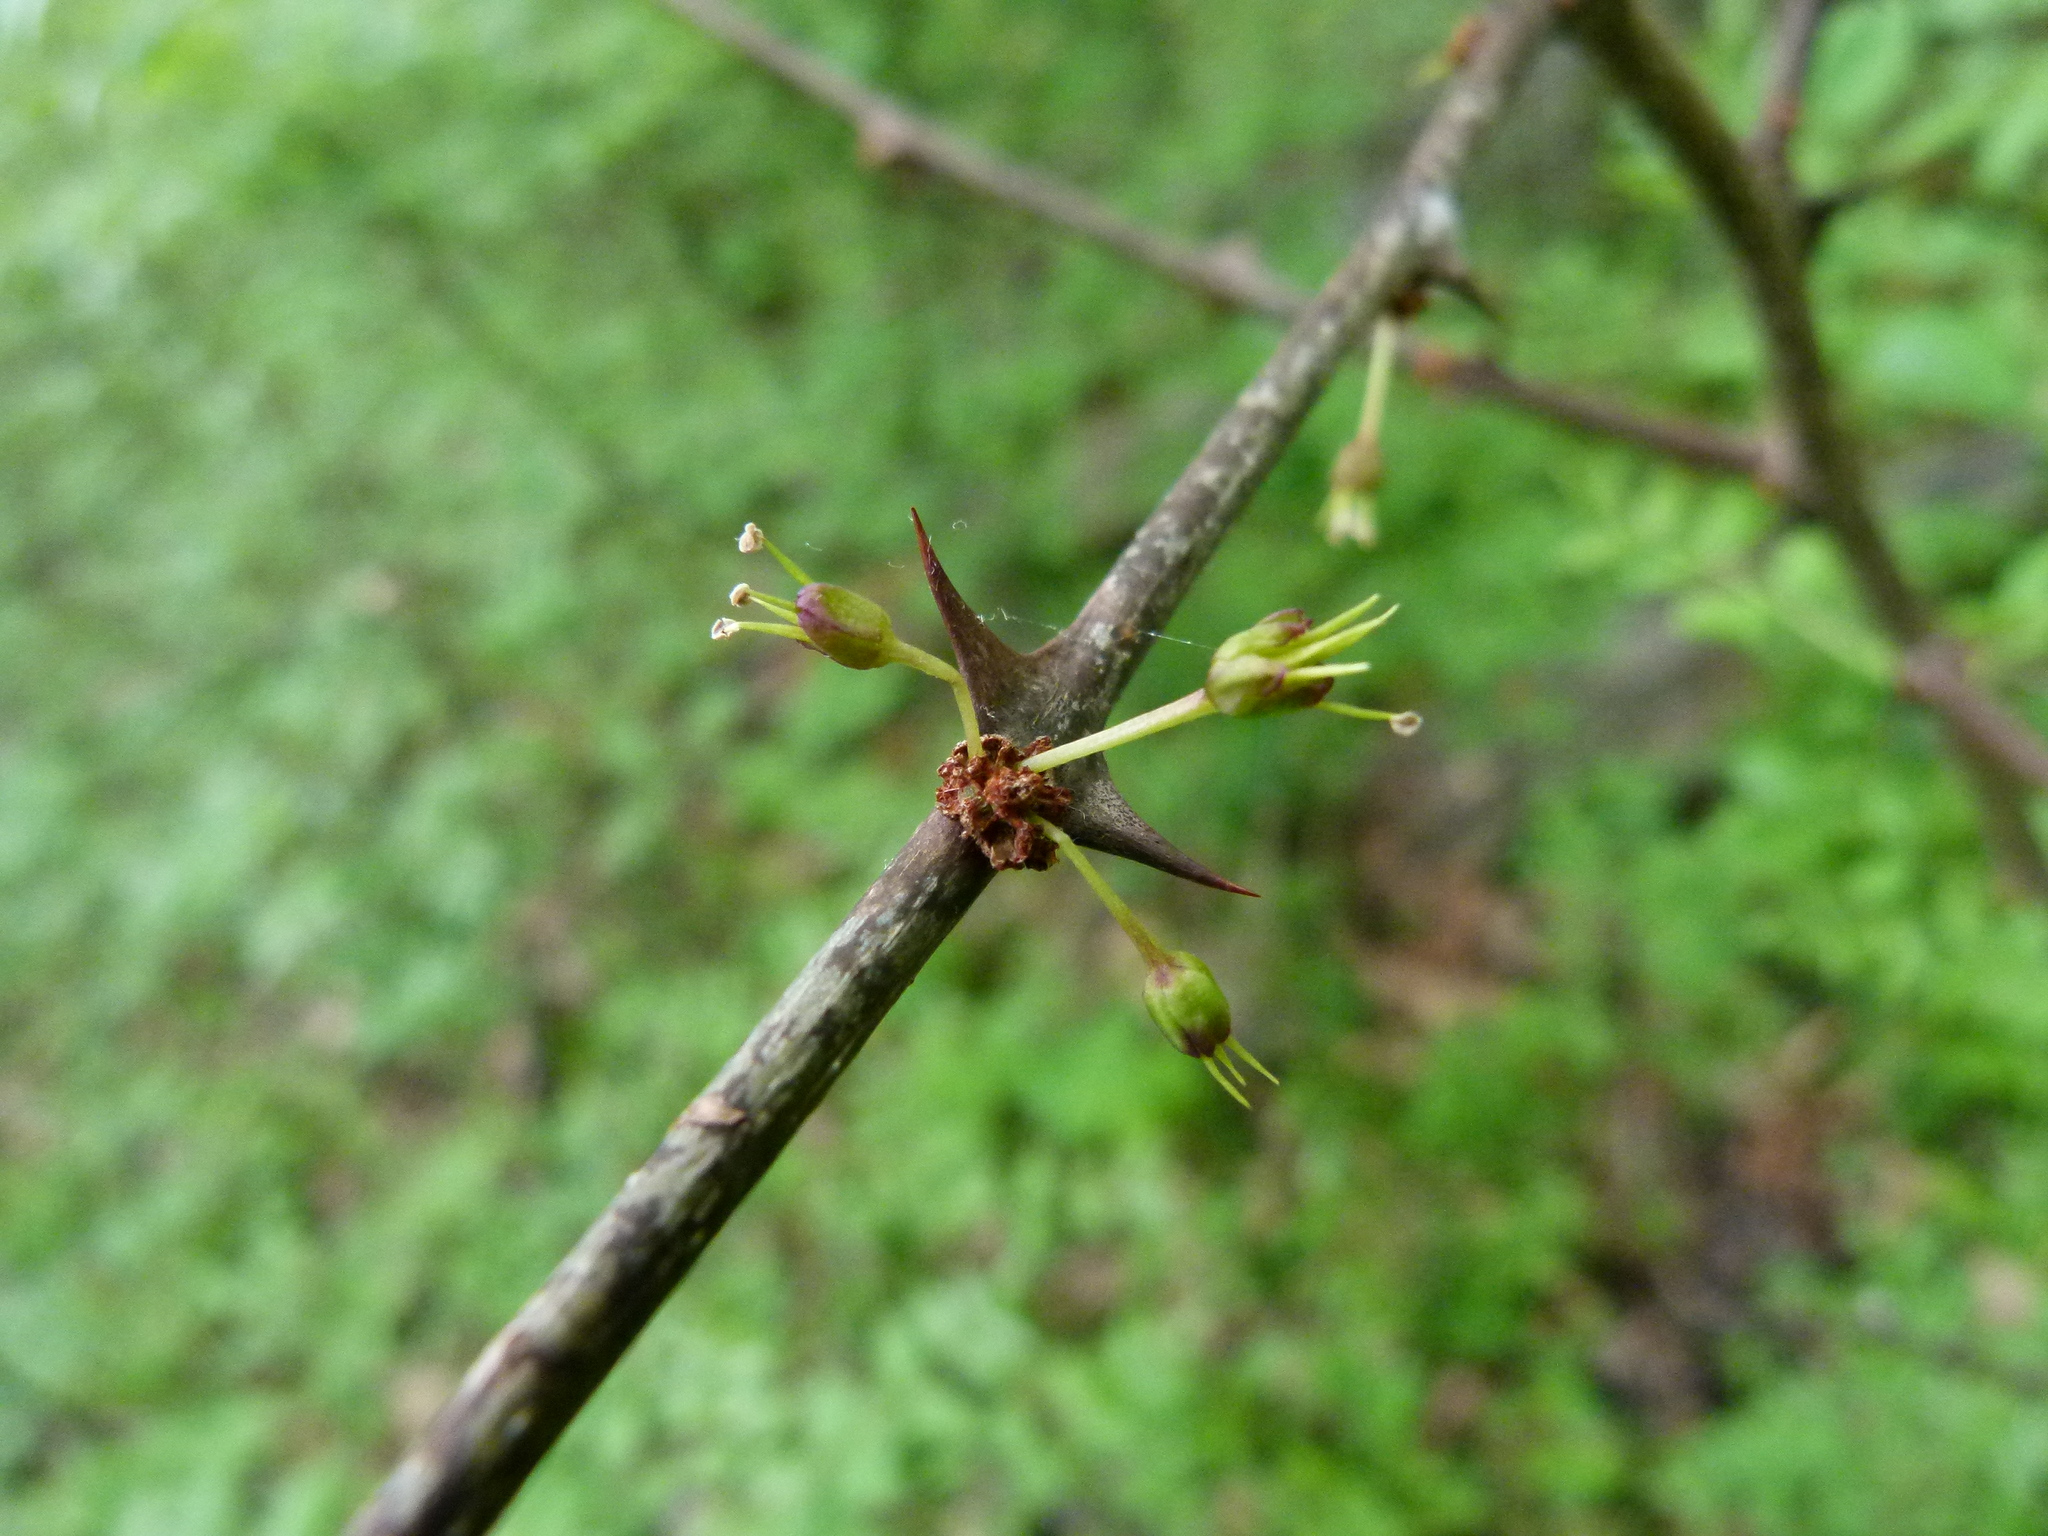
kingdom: Plantae
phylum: Tracheophyta
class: Magnoliopsida
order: Sapindales
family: Rutaceae
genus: Zanthoxylum
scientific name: Zanthoxylum americanum
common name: Northern prickly-ash
